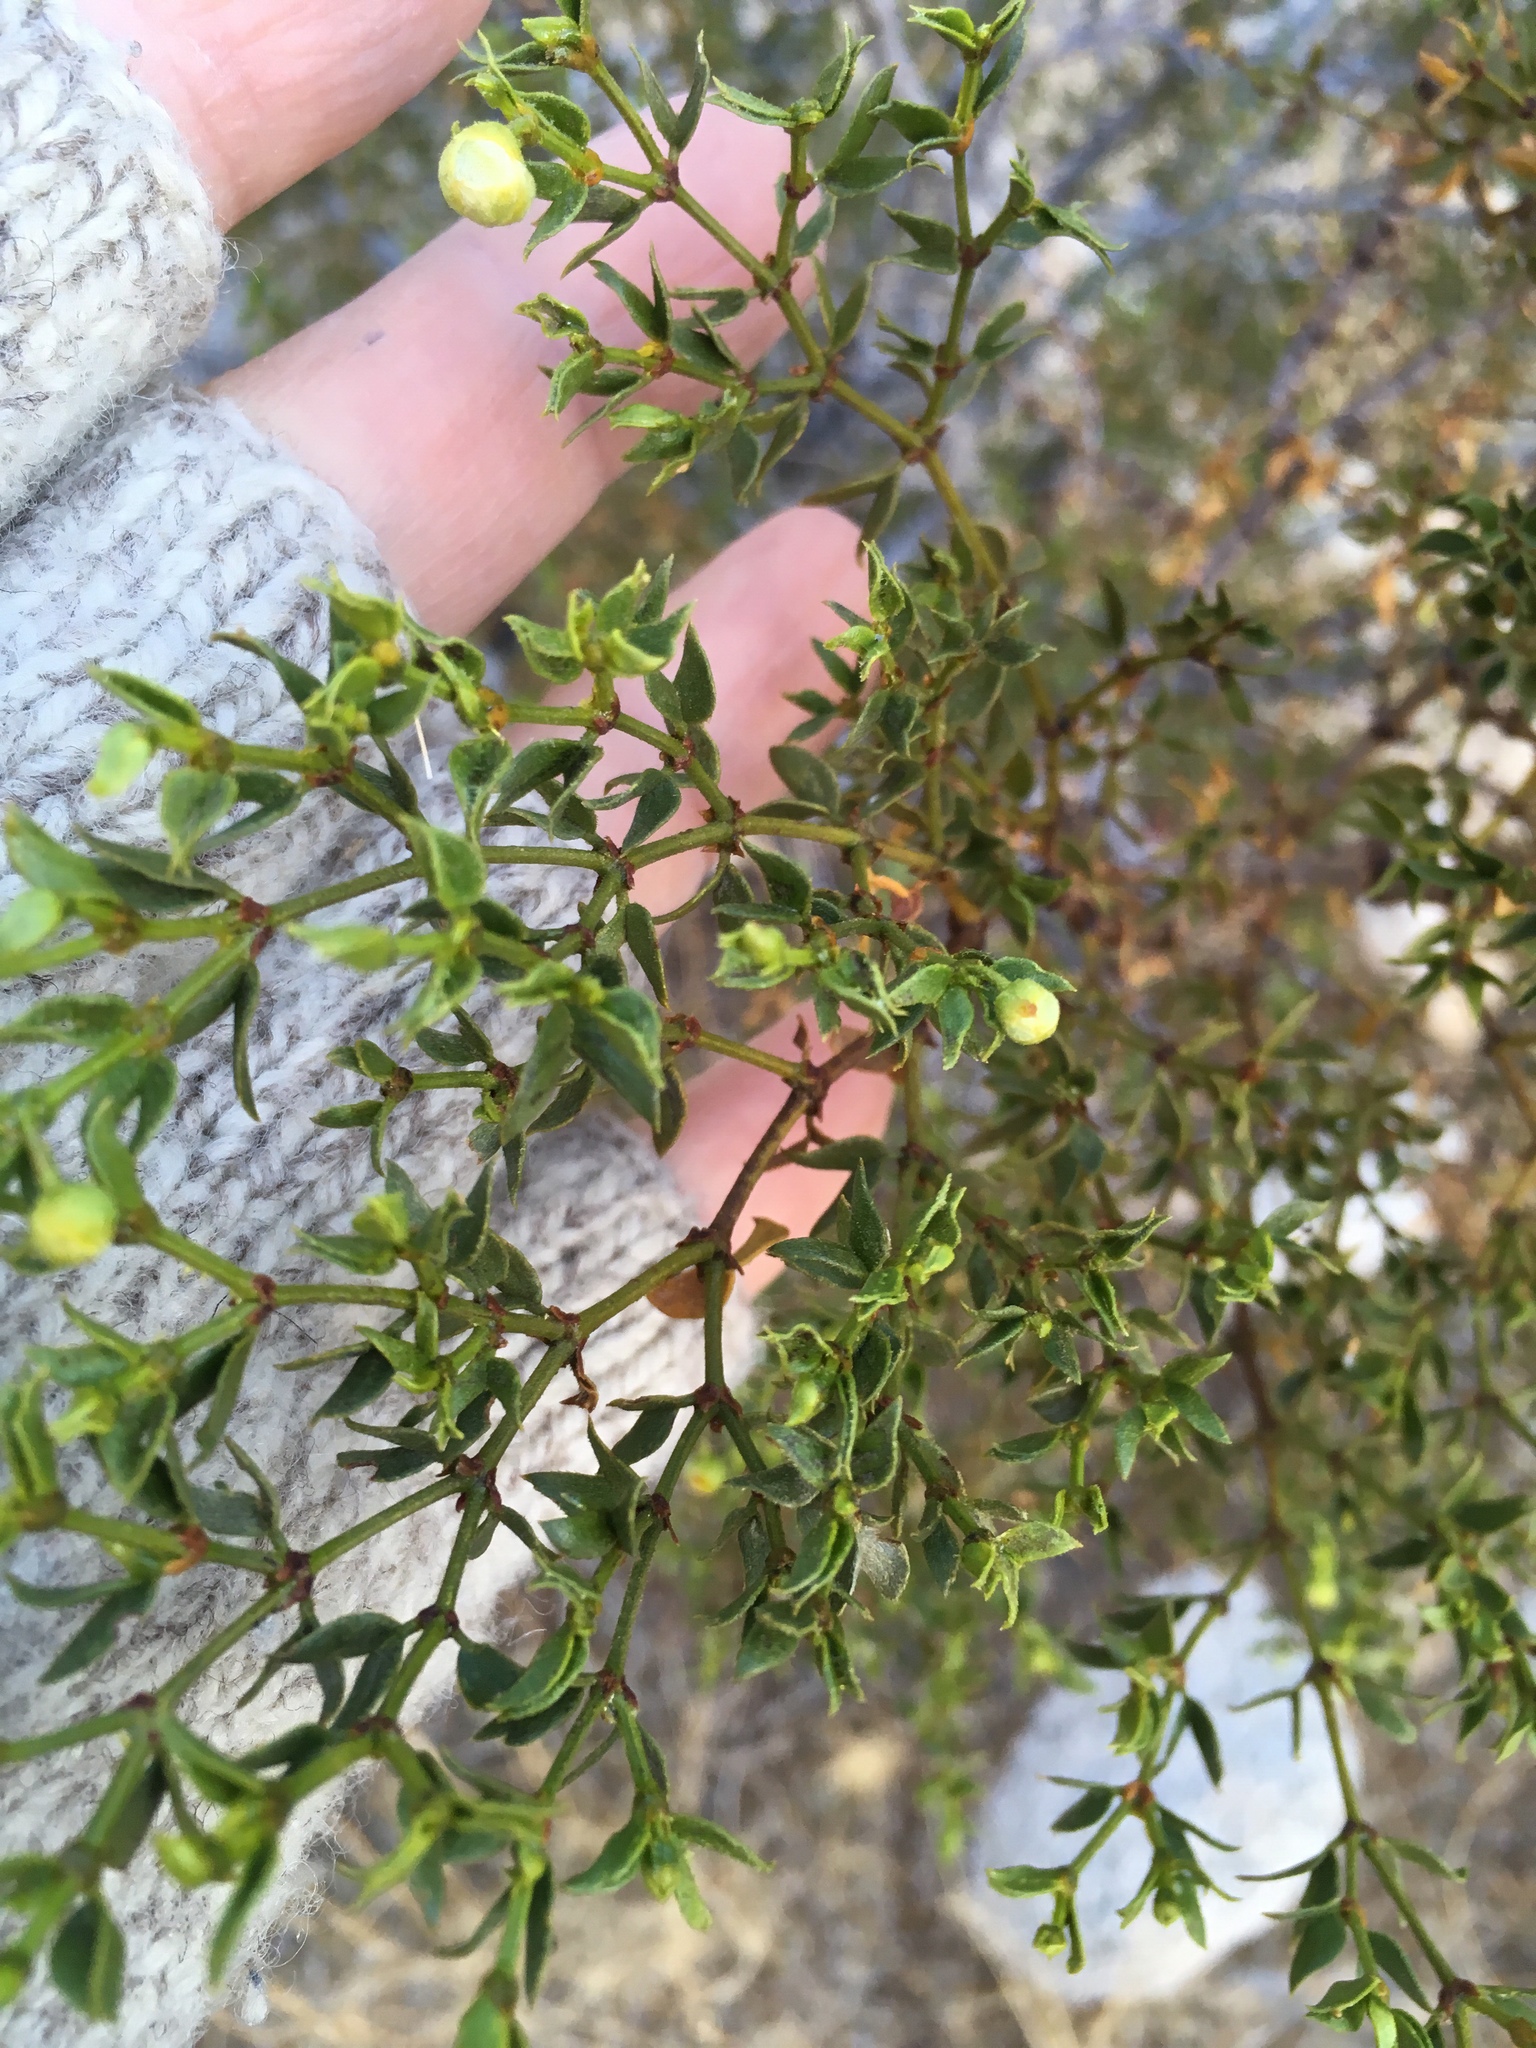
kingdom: Animalia
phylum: Arthropoda
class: Insecta
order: Diptera
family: Cecidomyiidae
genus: Asphondylia
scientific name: Asphondylia auripila
